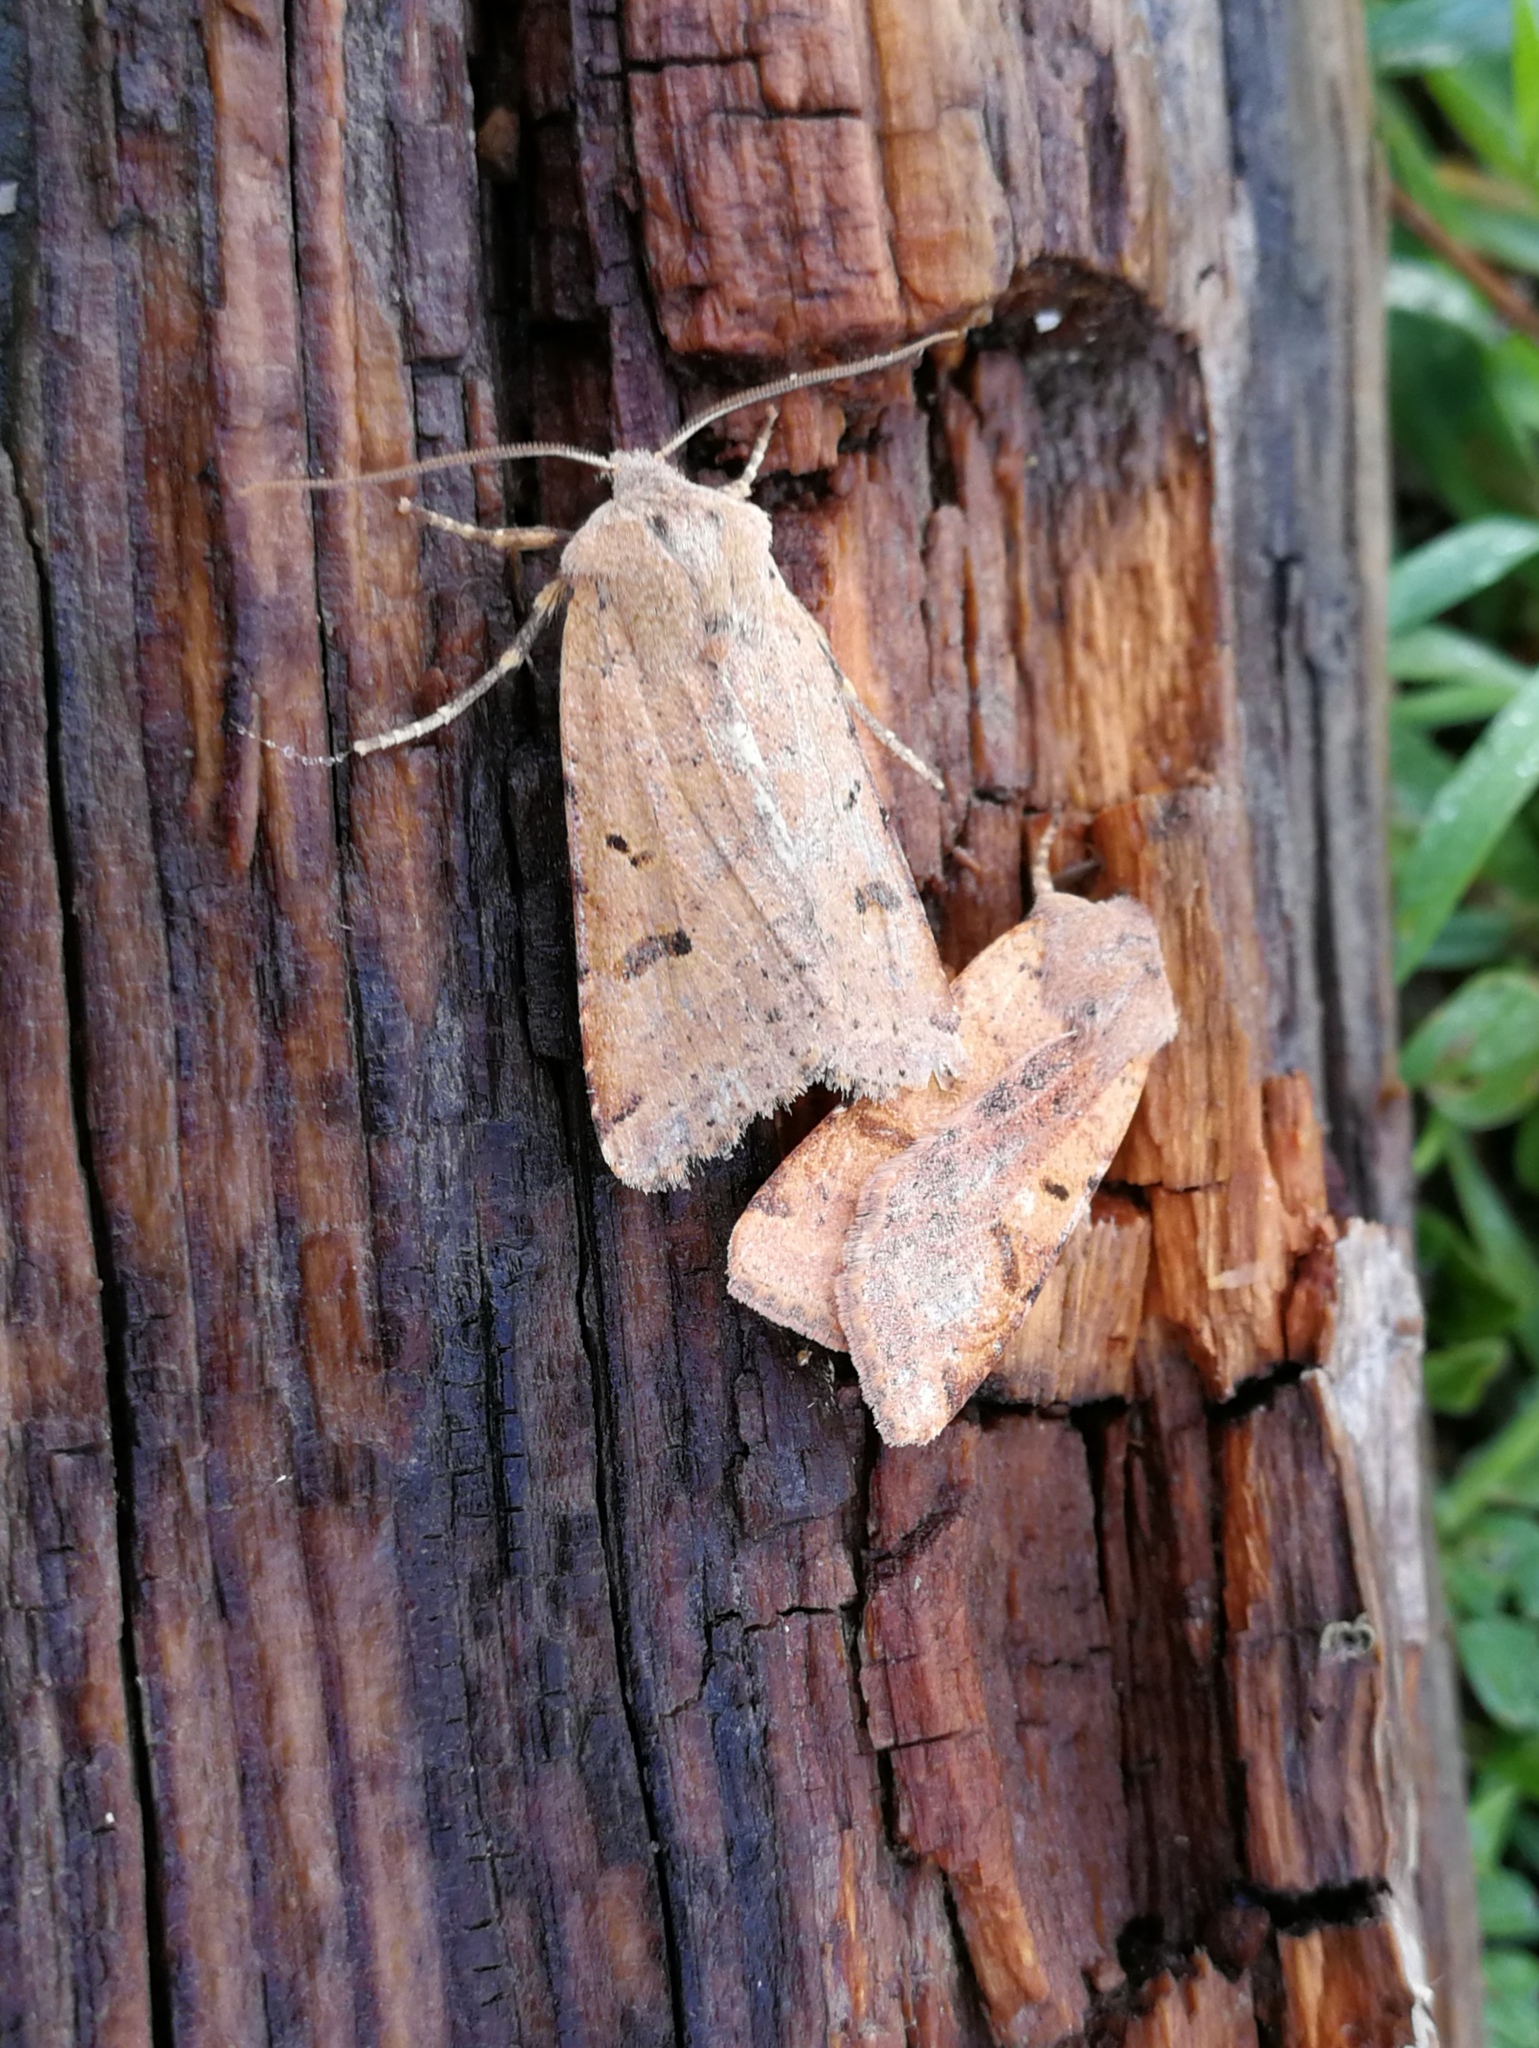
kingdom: Animalia
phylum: Arthropoda
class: Insecta
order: Lepidoptera
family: Noctuidae
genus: Agrochola
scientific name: Agrochola lychnidis
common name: Beaded chestnut
